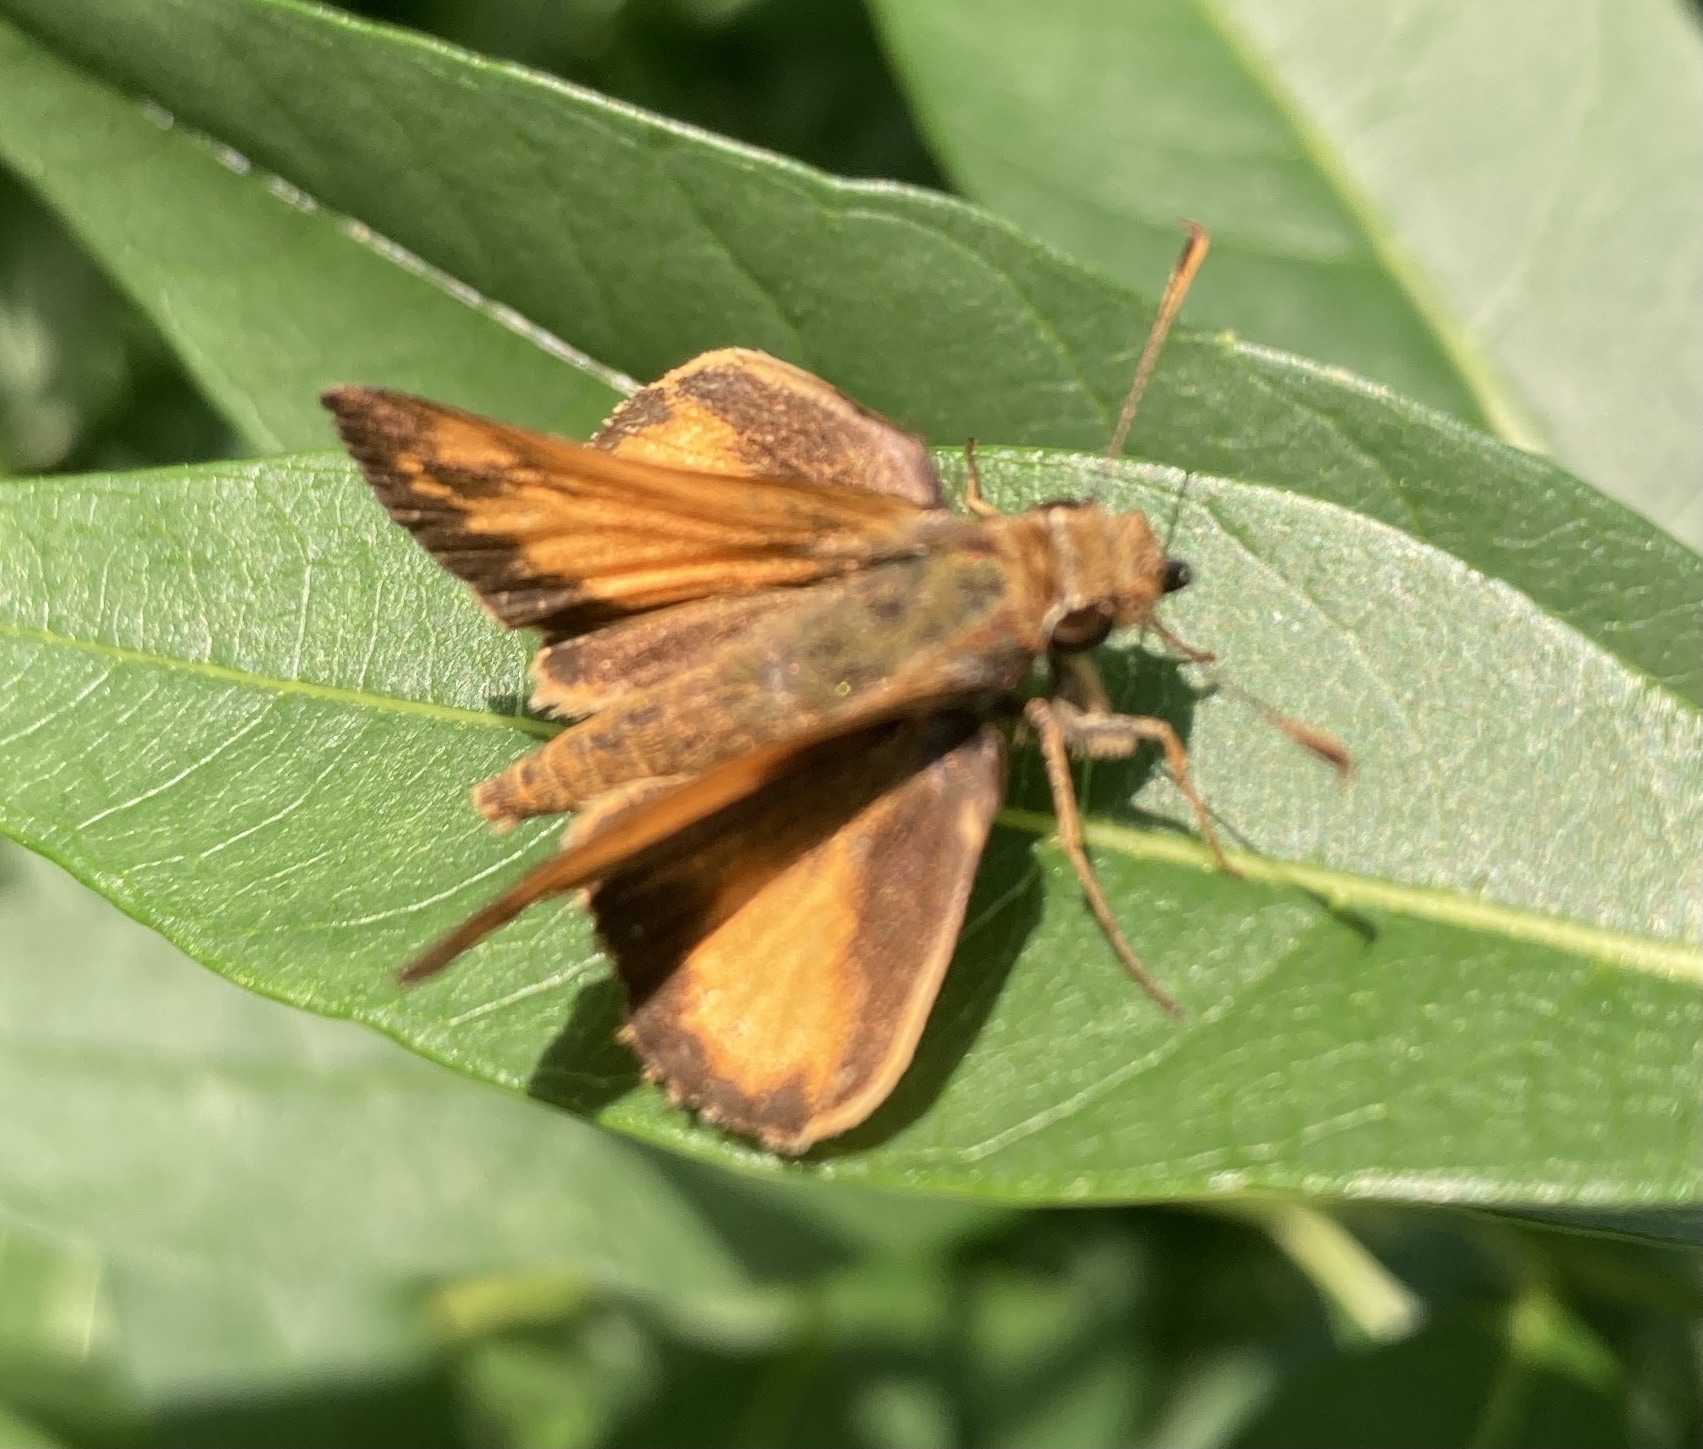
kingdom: Animalia
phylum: Arthropoda
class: Insecta
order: Lepidoptera
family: Hesperiidae
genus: Lon
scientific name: Lon zabulon
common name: Zabulon skipper
